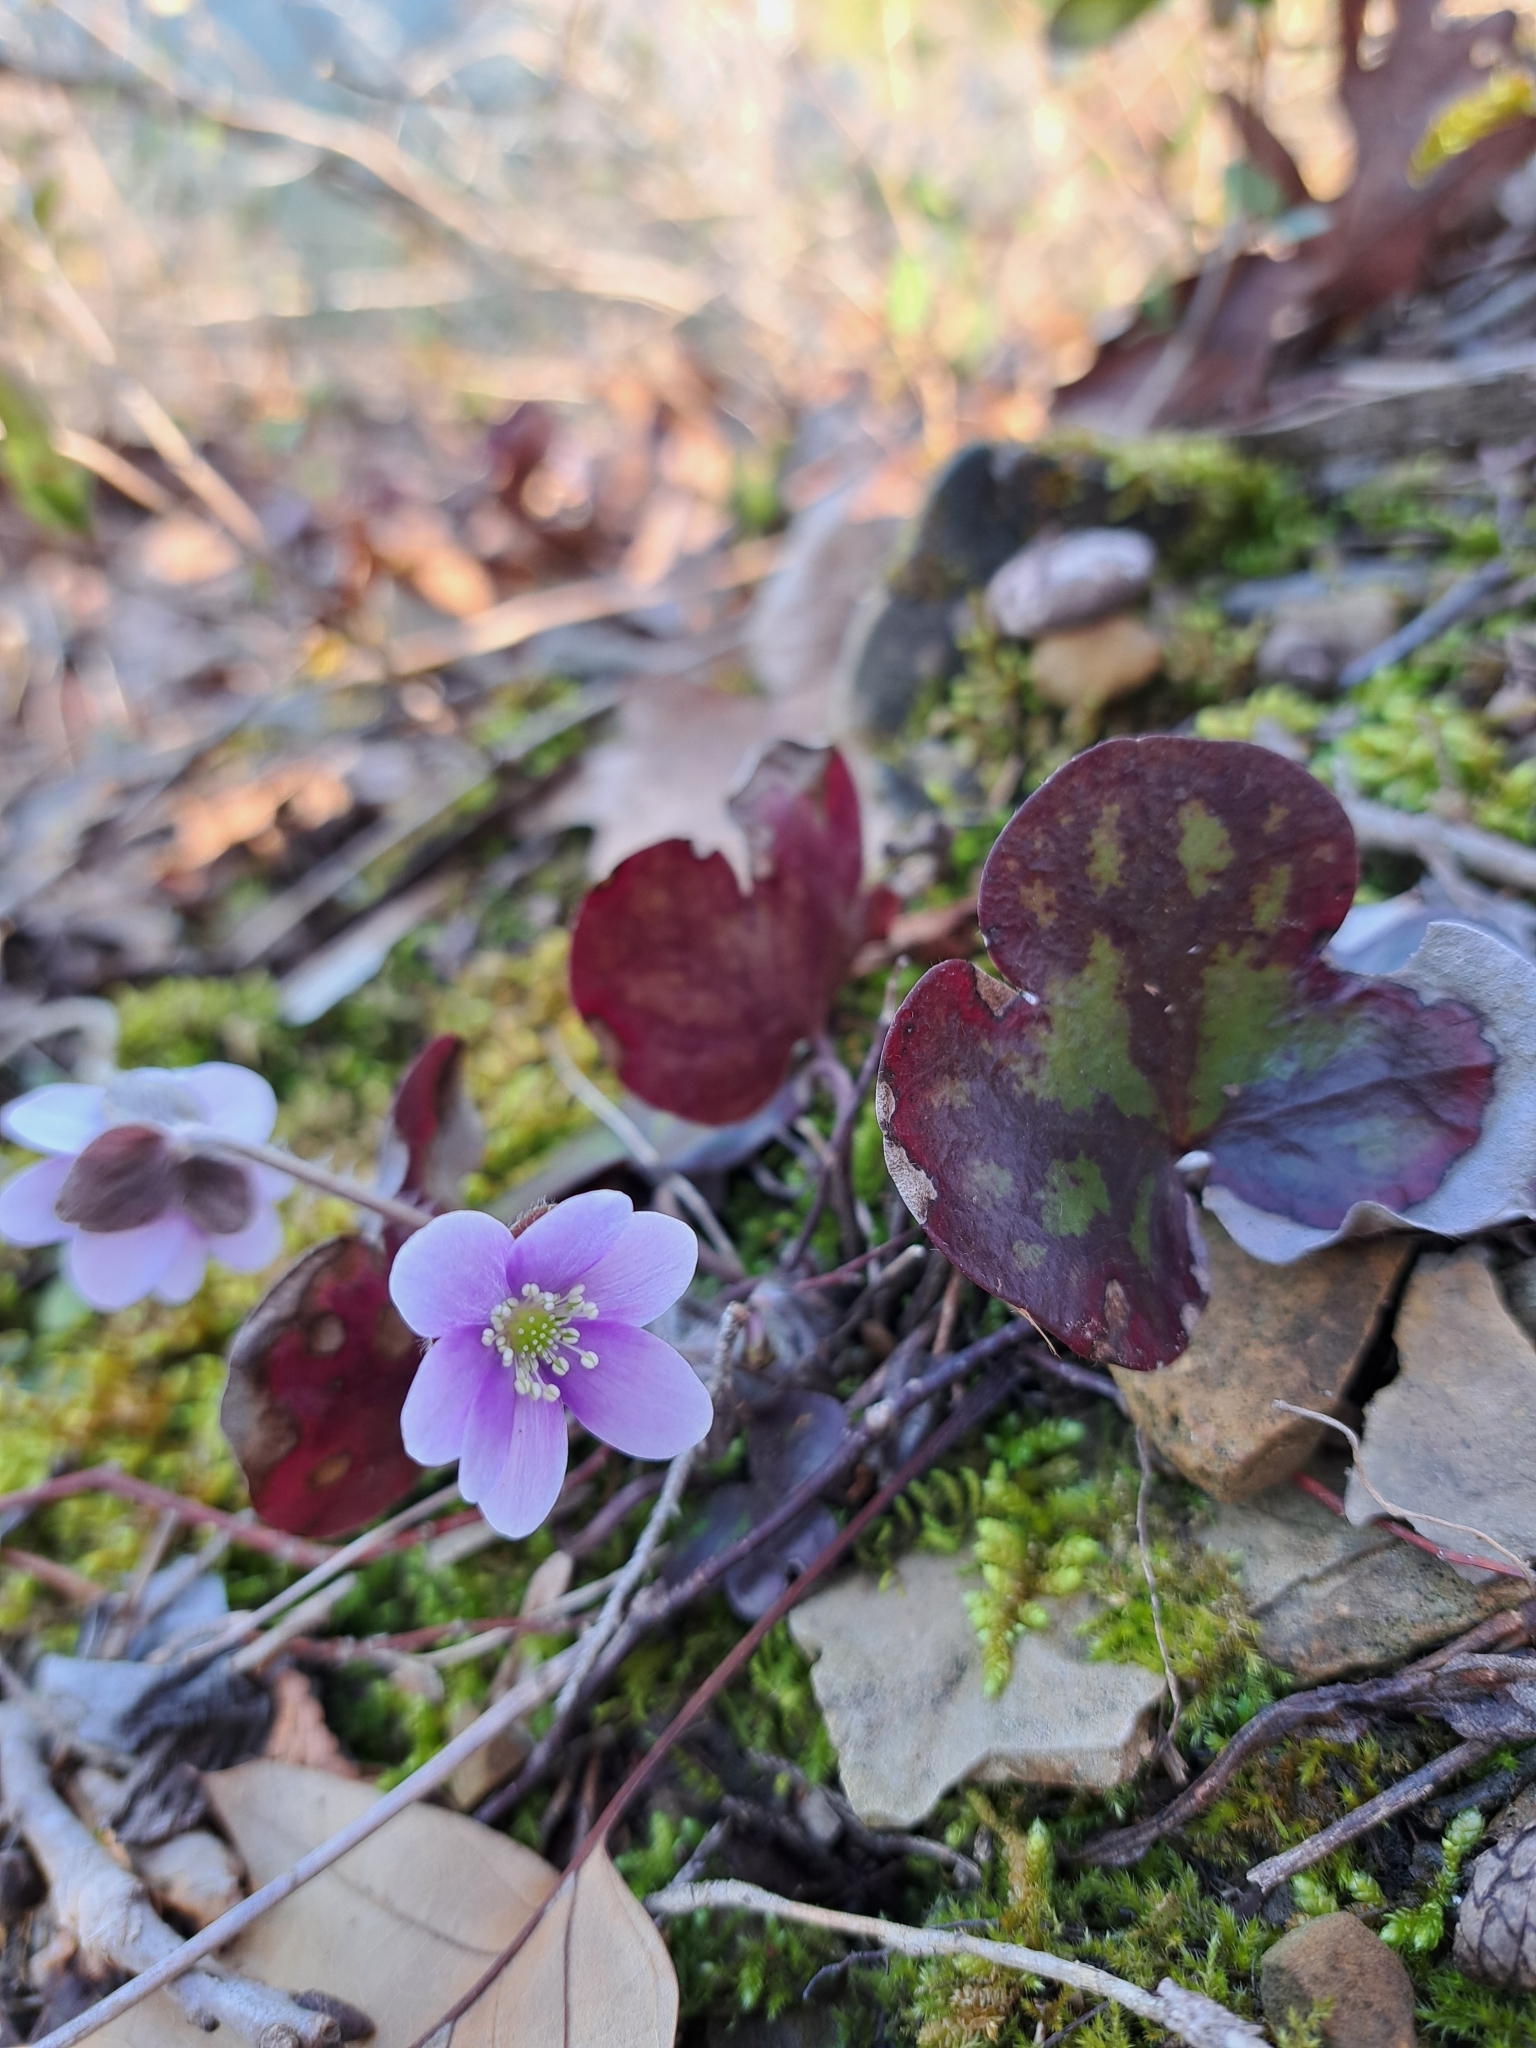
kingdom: Plantae
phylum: Tracheophyta
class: Magnoliopsida
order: Ranunculales
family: Ranunculaceae
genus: Hepatica
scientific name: Hepatica americana
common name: American hepatica
